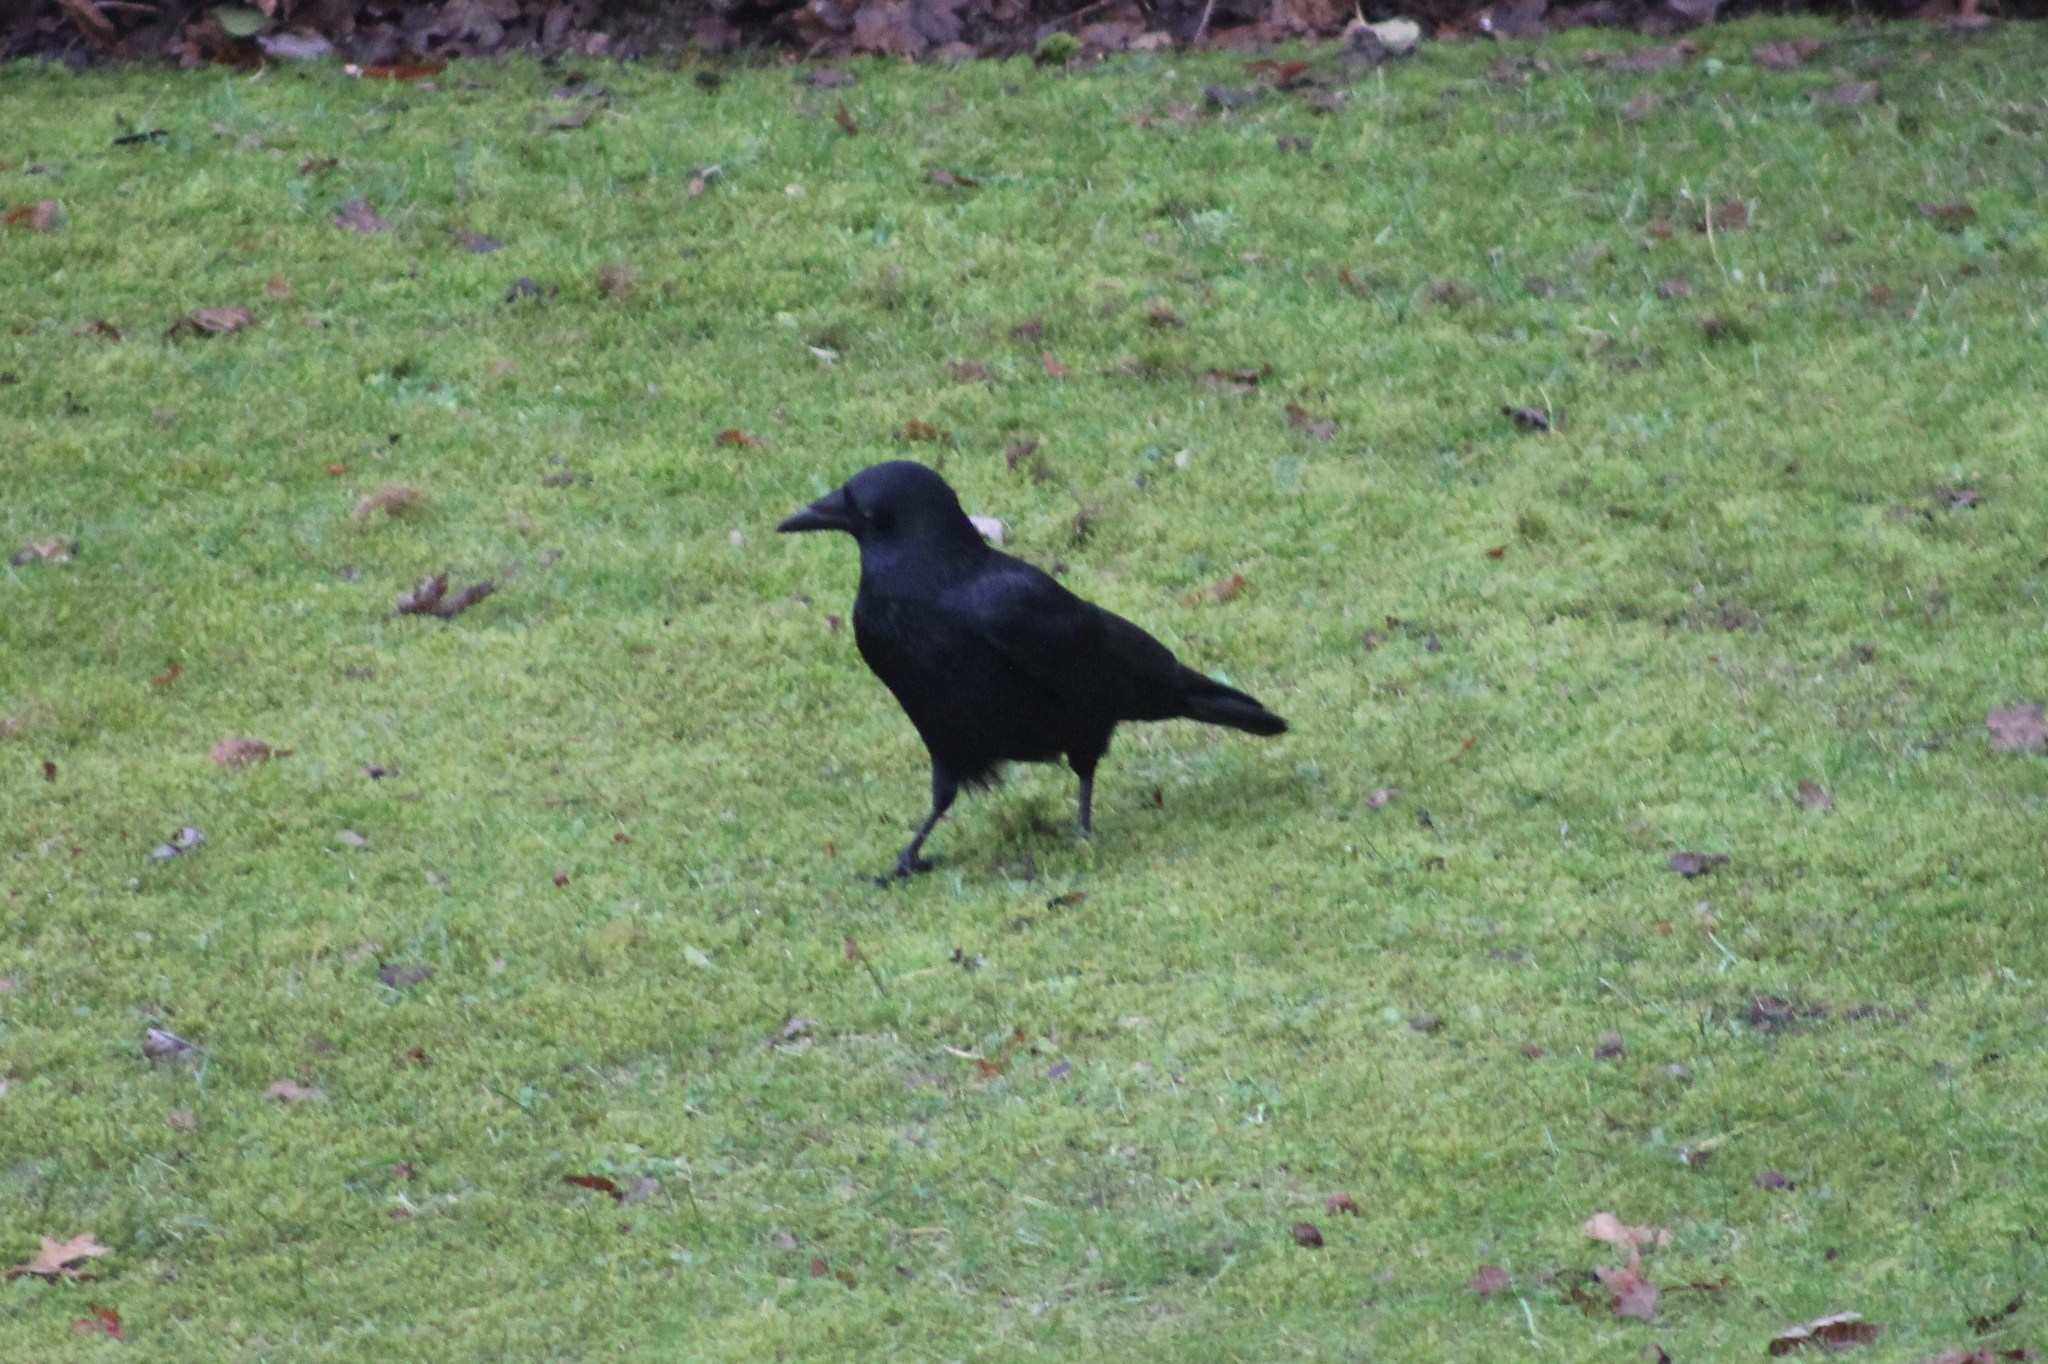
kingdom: Animalia
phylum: Chordata
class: Aves
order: Passeriformes
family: Corvidae
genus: Corvus
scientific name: Corvus corone
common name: Carrion crow
